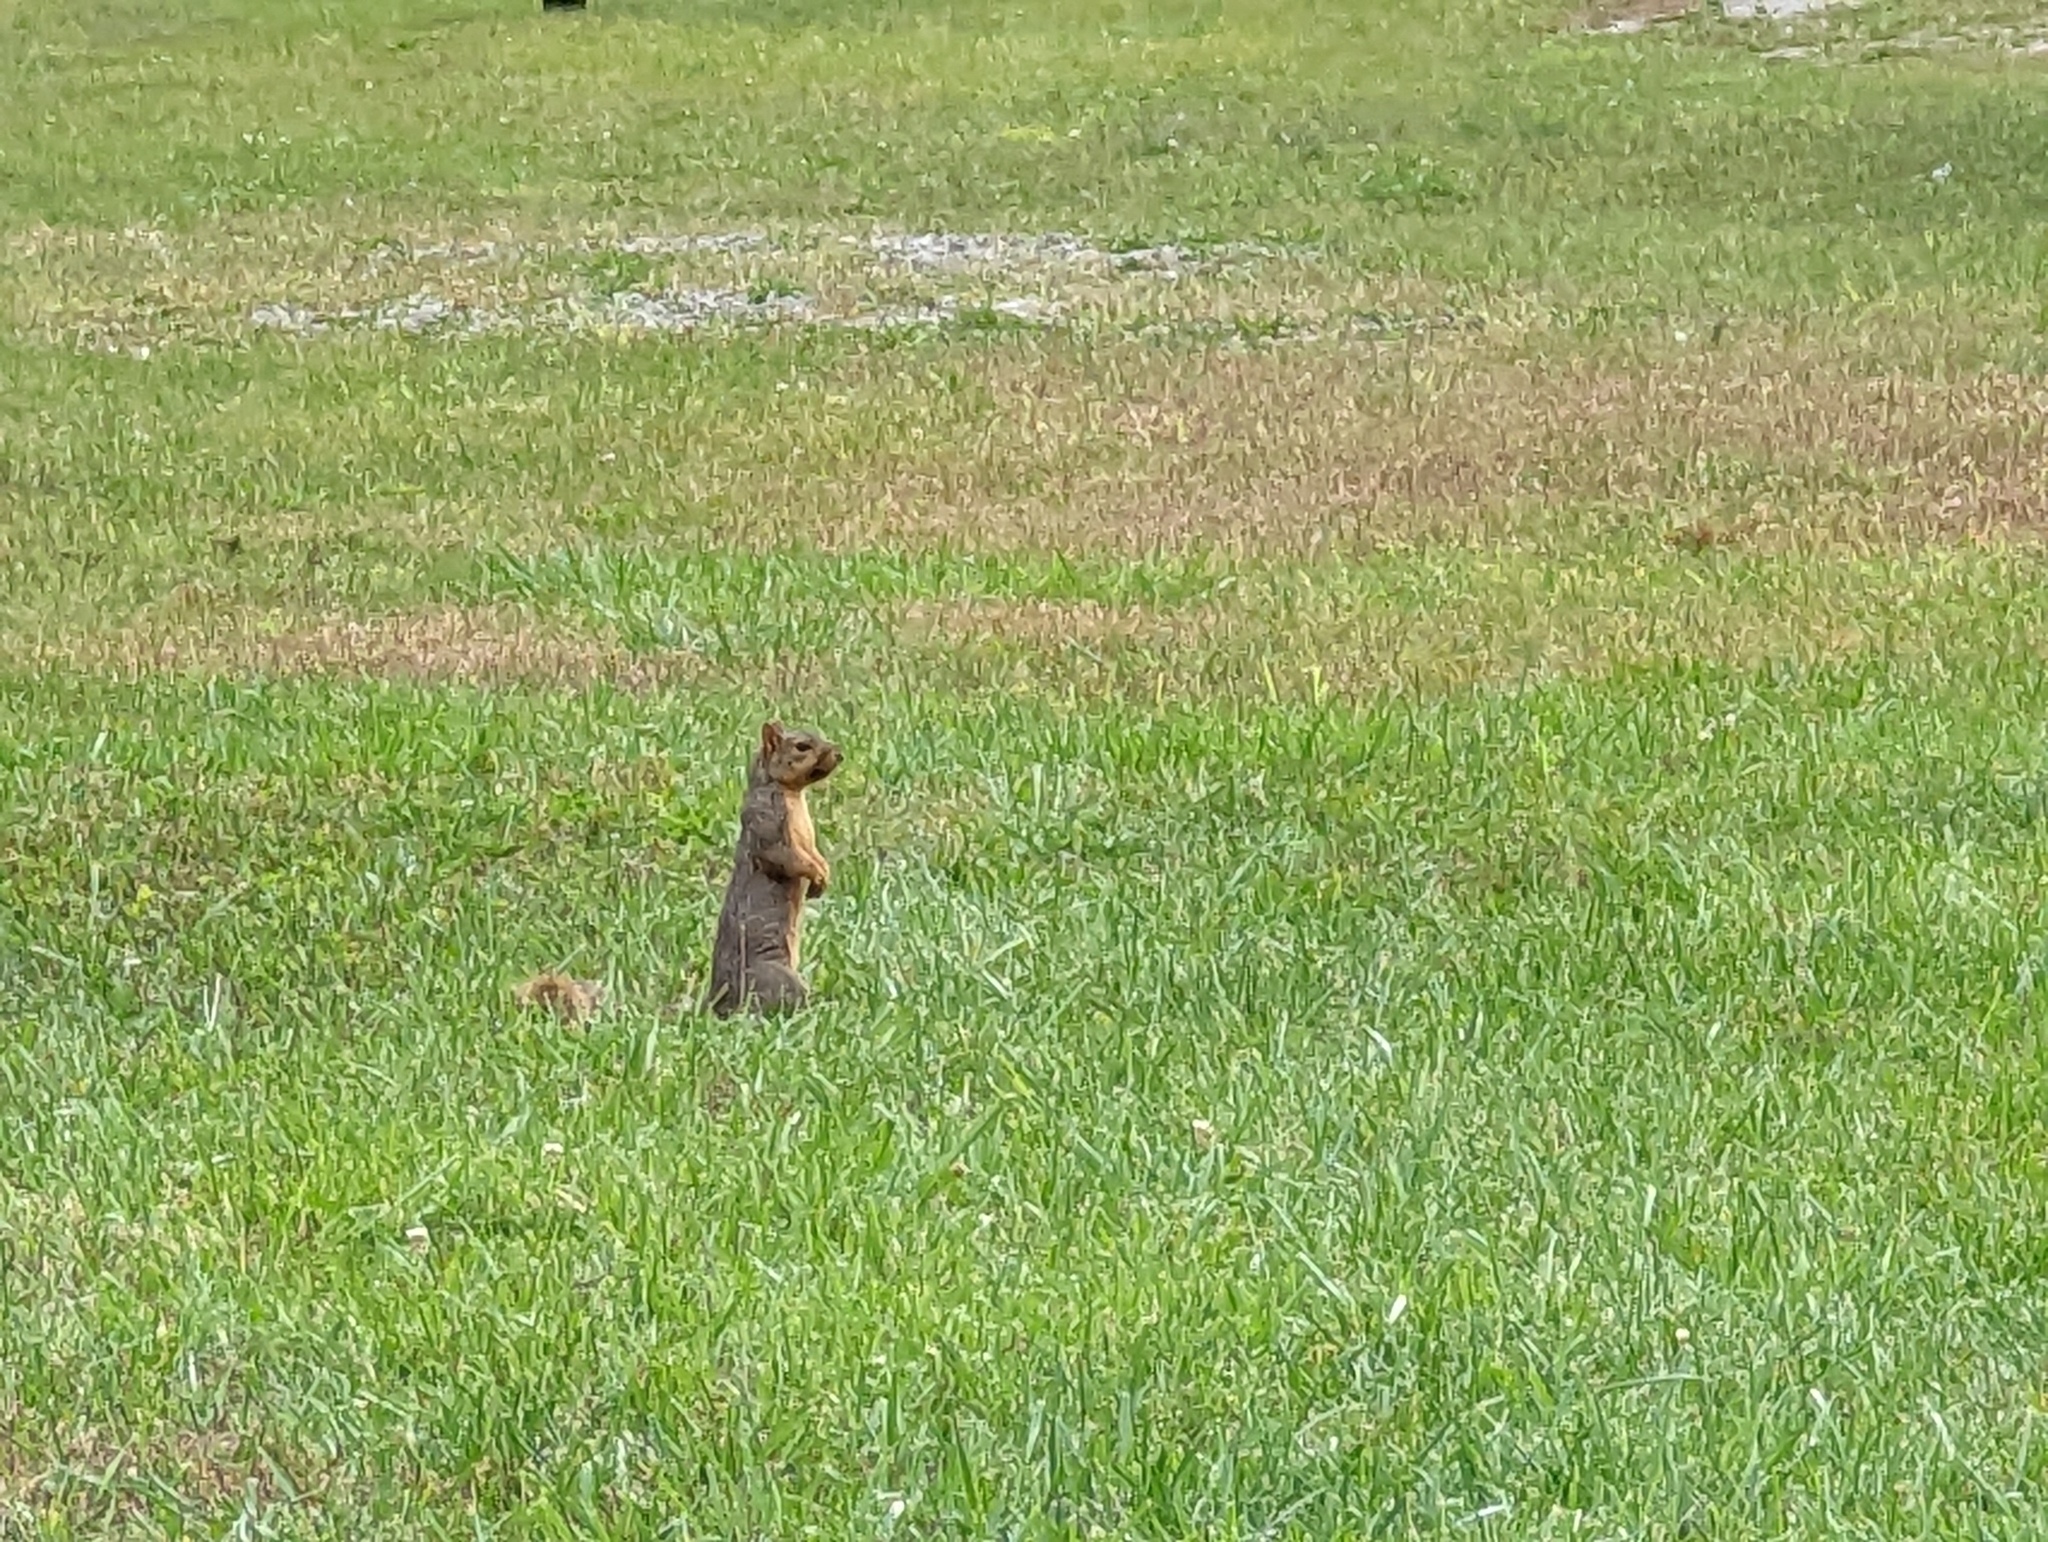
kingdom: Animalia
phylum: Chordata
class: Mammalia
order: Rodentia
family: Sciuridae
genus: Sciurus
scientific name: Sciurus niger
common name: Fox squirrel
